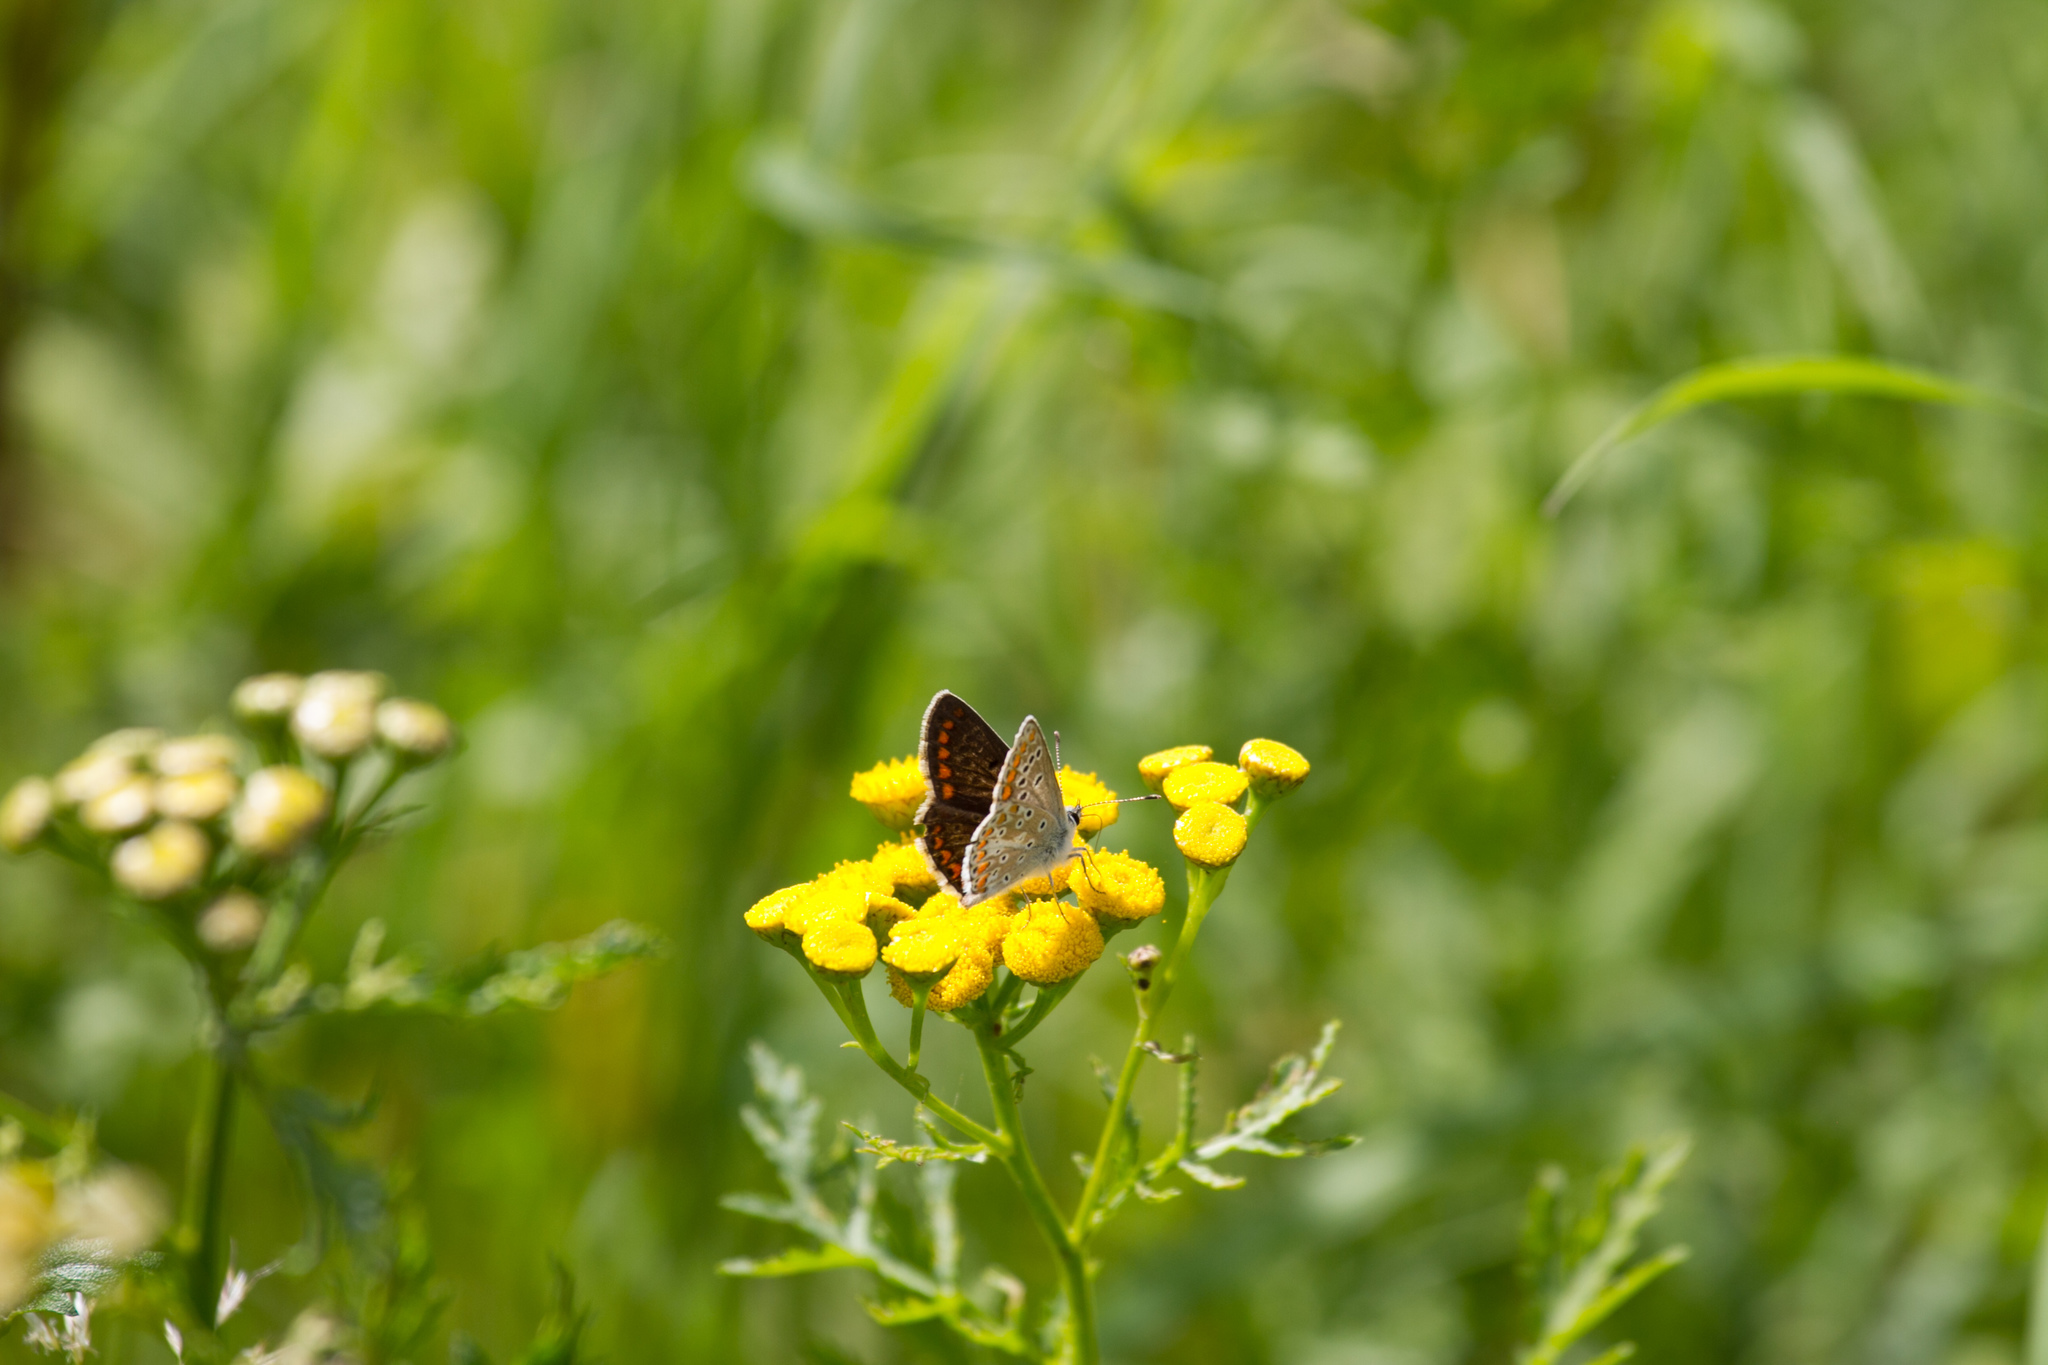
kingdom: Animalia
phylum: Arthropoda
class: Insecta
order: Lepidoptera
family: Lycaenidae
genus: Aricia
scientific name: Aricia agestis
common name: Brown argus
